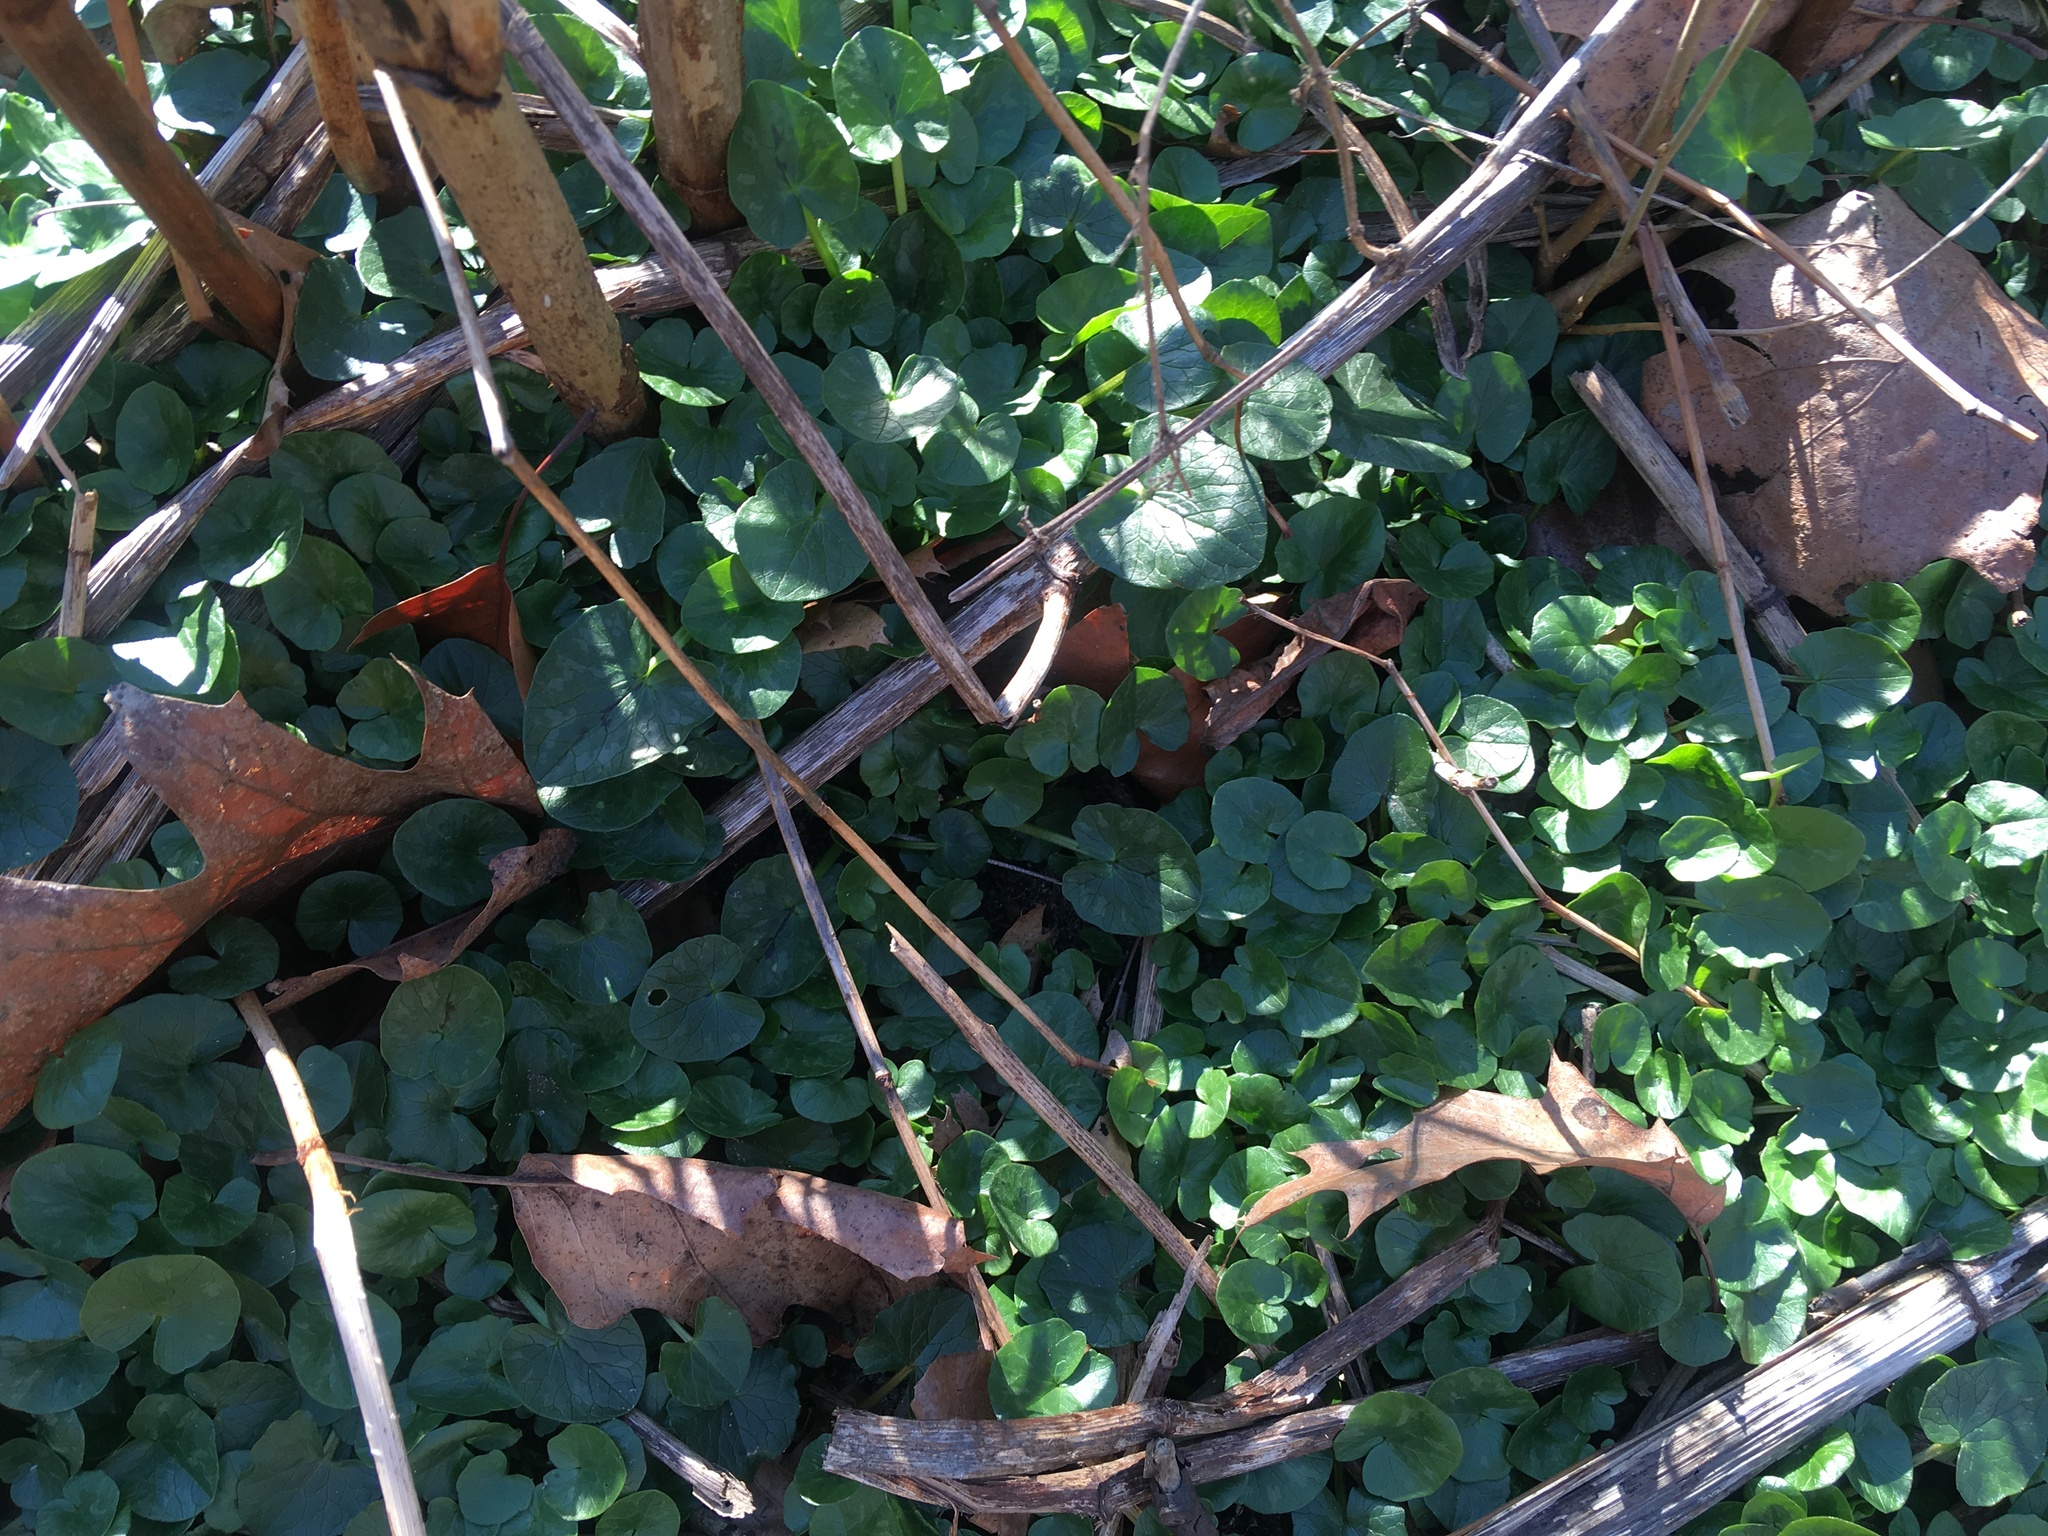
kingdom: Plantae
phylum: Tracheophyta
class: Magnoliopsida
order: Ranunculales
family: Ranunculaceae
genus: Ficaria
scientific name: Ficaria verna
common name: Lesser celandine
